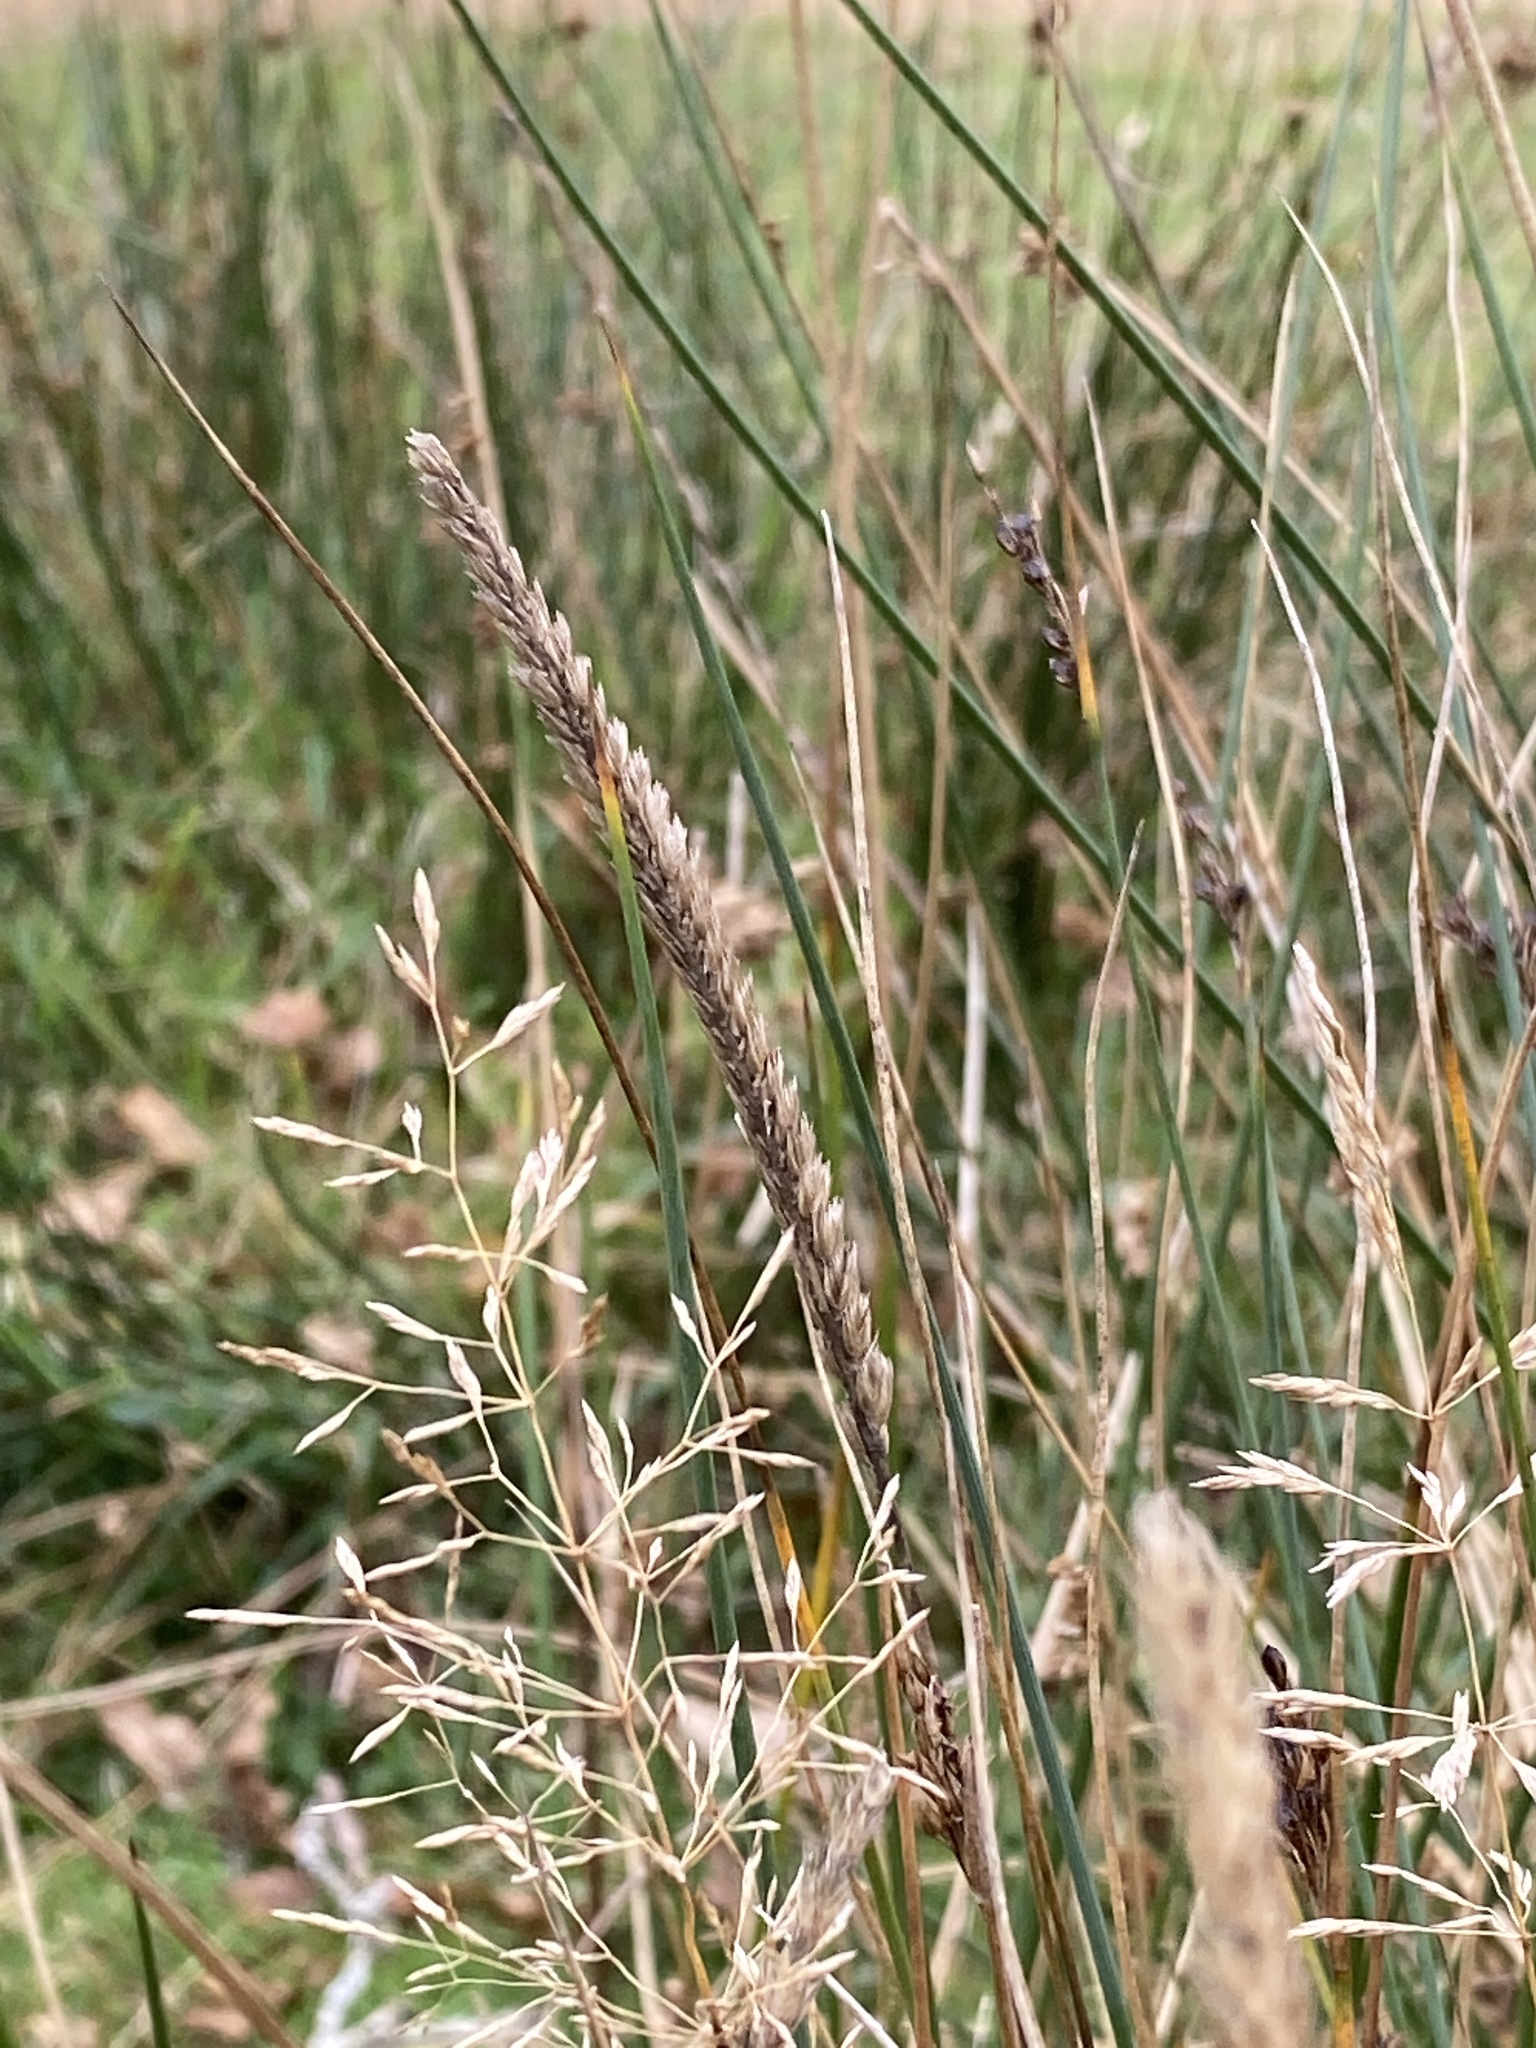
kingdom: Plantae
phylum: Tracheophyta
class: Liliopsida
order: Poales
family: Poaceae
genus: Cynosurus
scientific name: Cynosurus cristatus
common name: Crested dog's-tail
